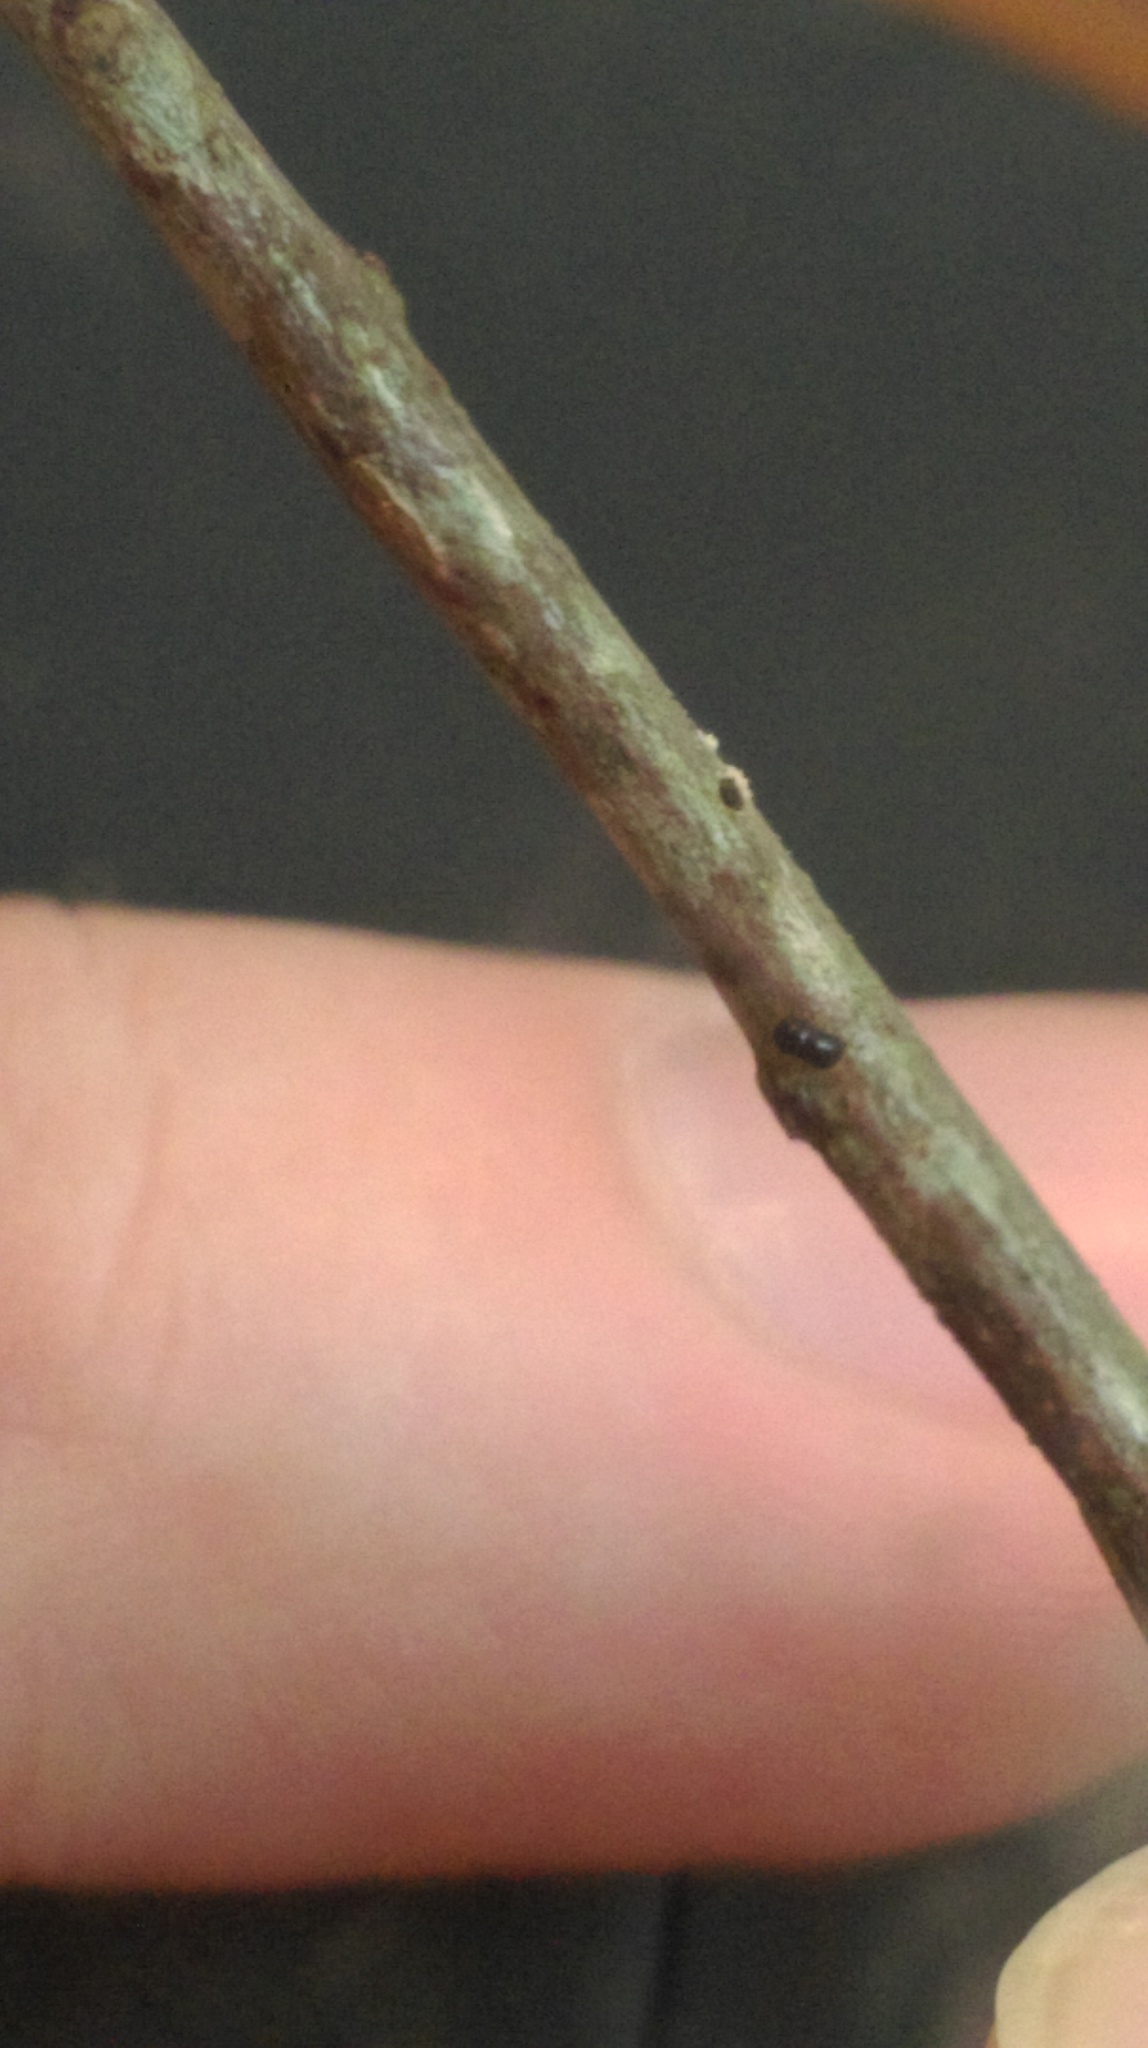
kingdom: Animalia
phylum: Arthropoda
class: Insecta
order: Coleoptera
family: Curculionidae
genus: Xylosandrus
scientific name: Xylosandrus compactus
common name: Black twig borer
